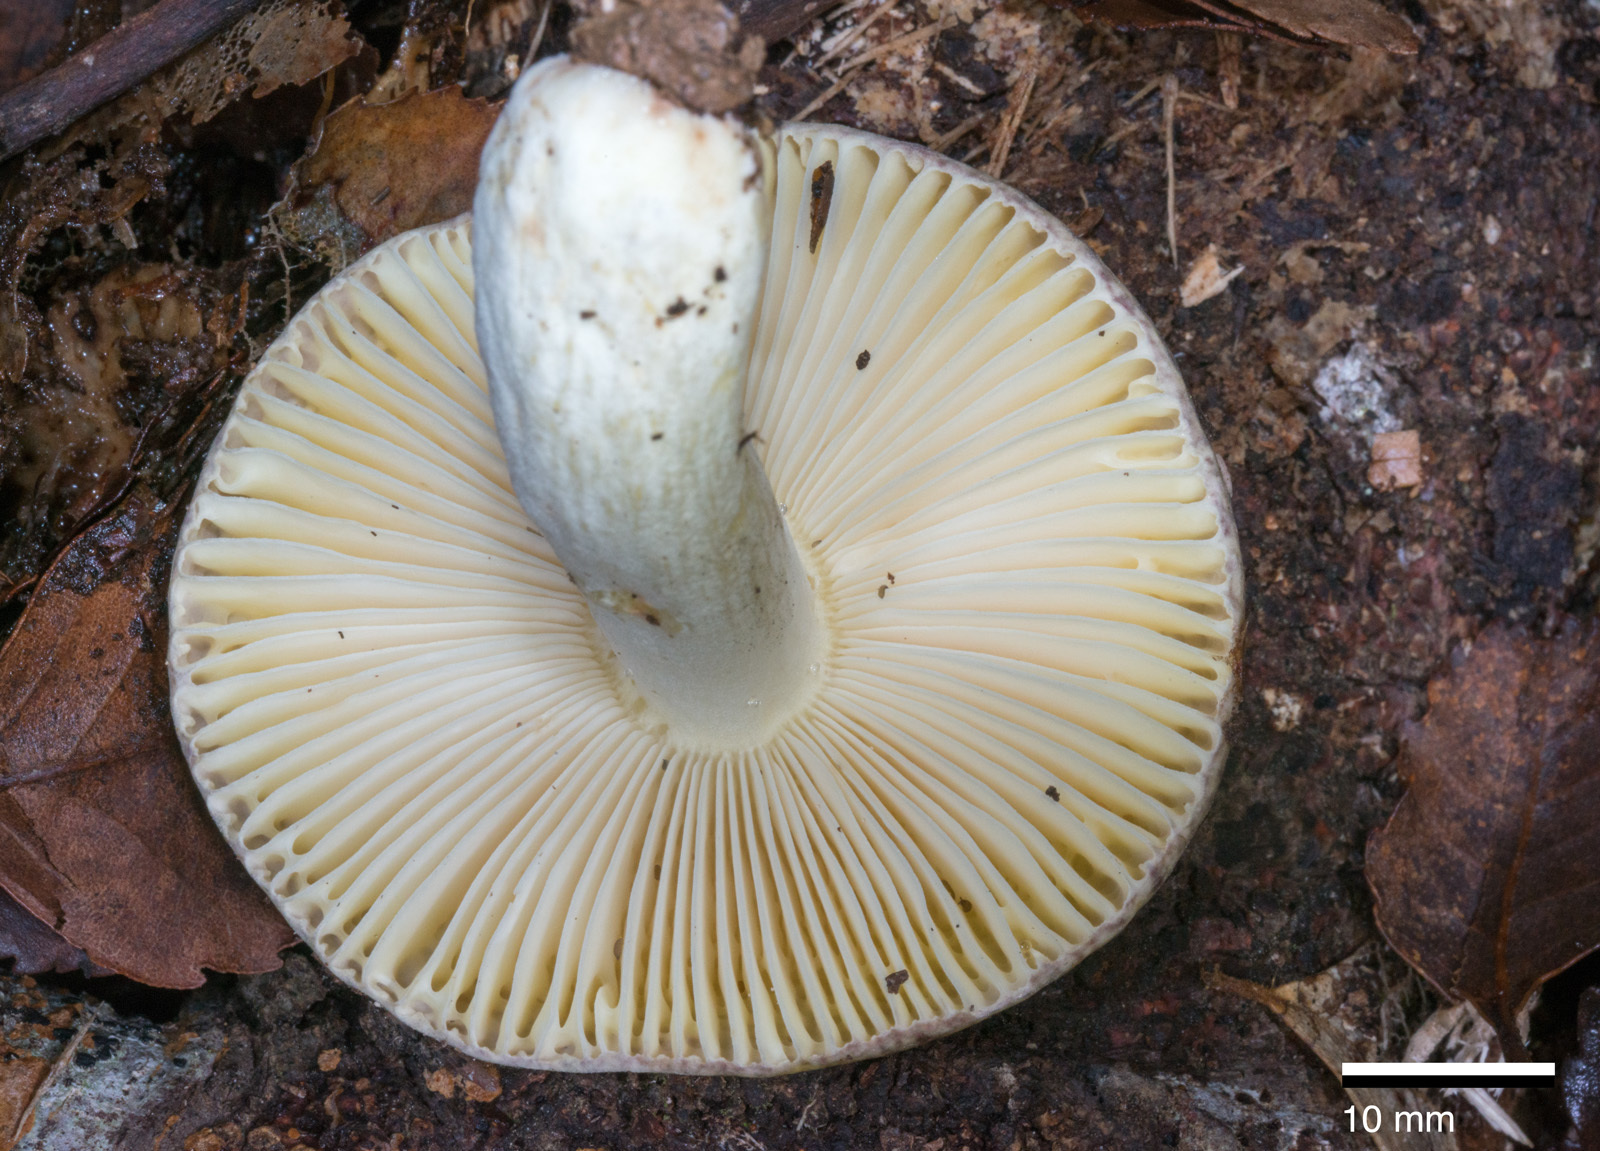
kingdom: Fungi
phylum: Basidiomycota
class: Agaricomycetes
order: Russulales
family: Russulaceae
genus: Russula
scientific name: Russula umerensis
